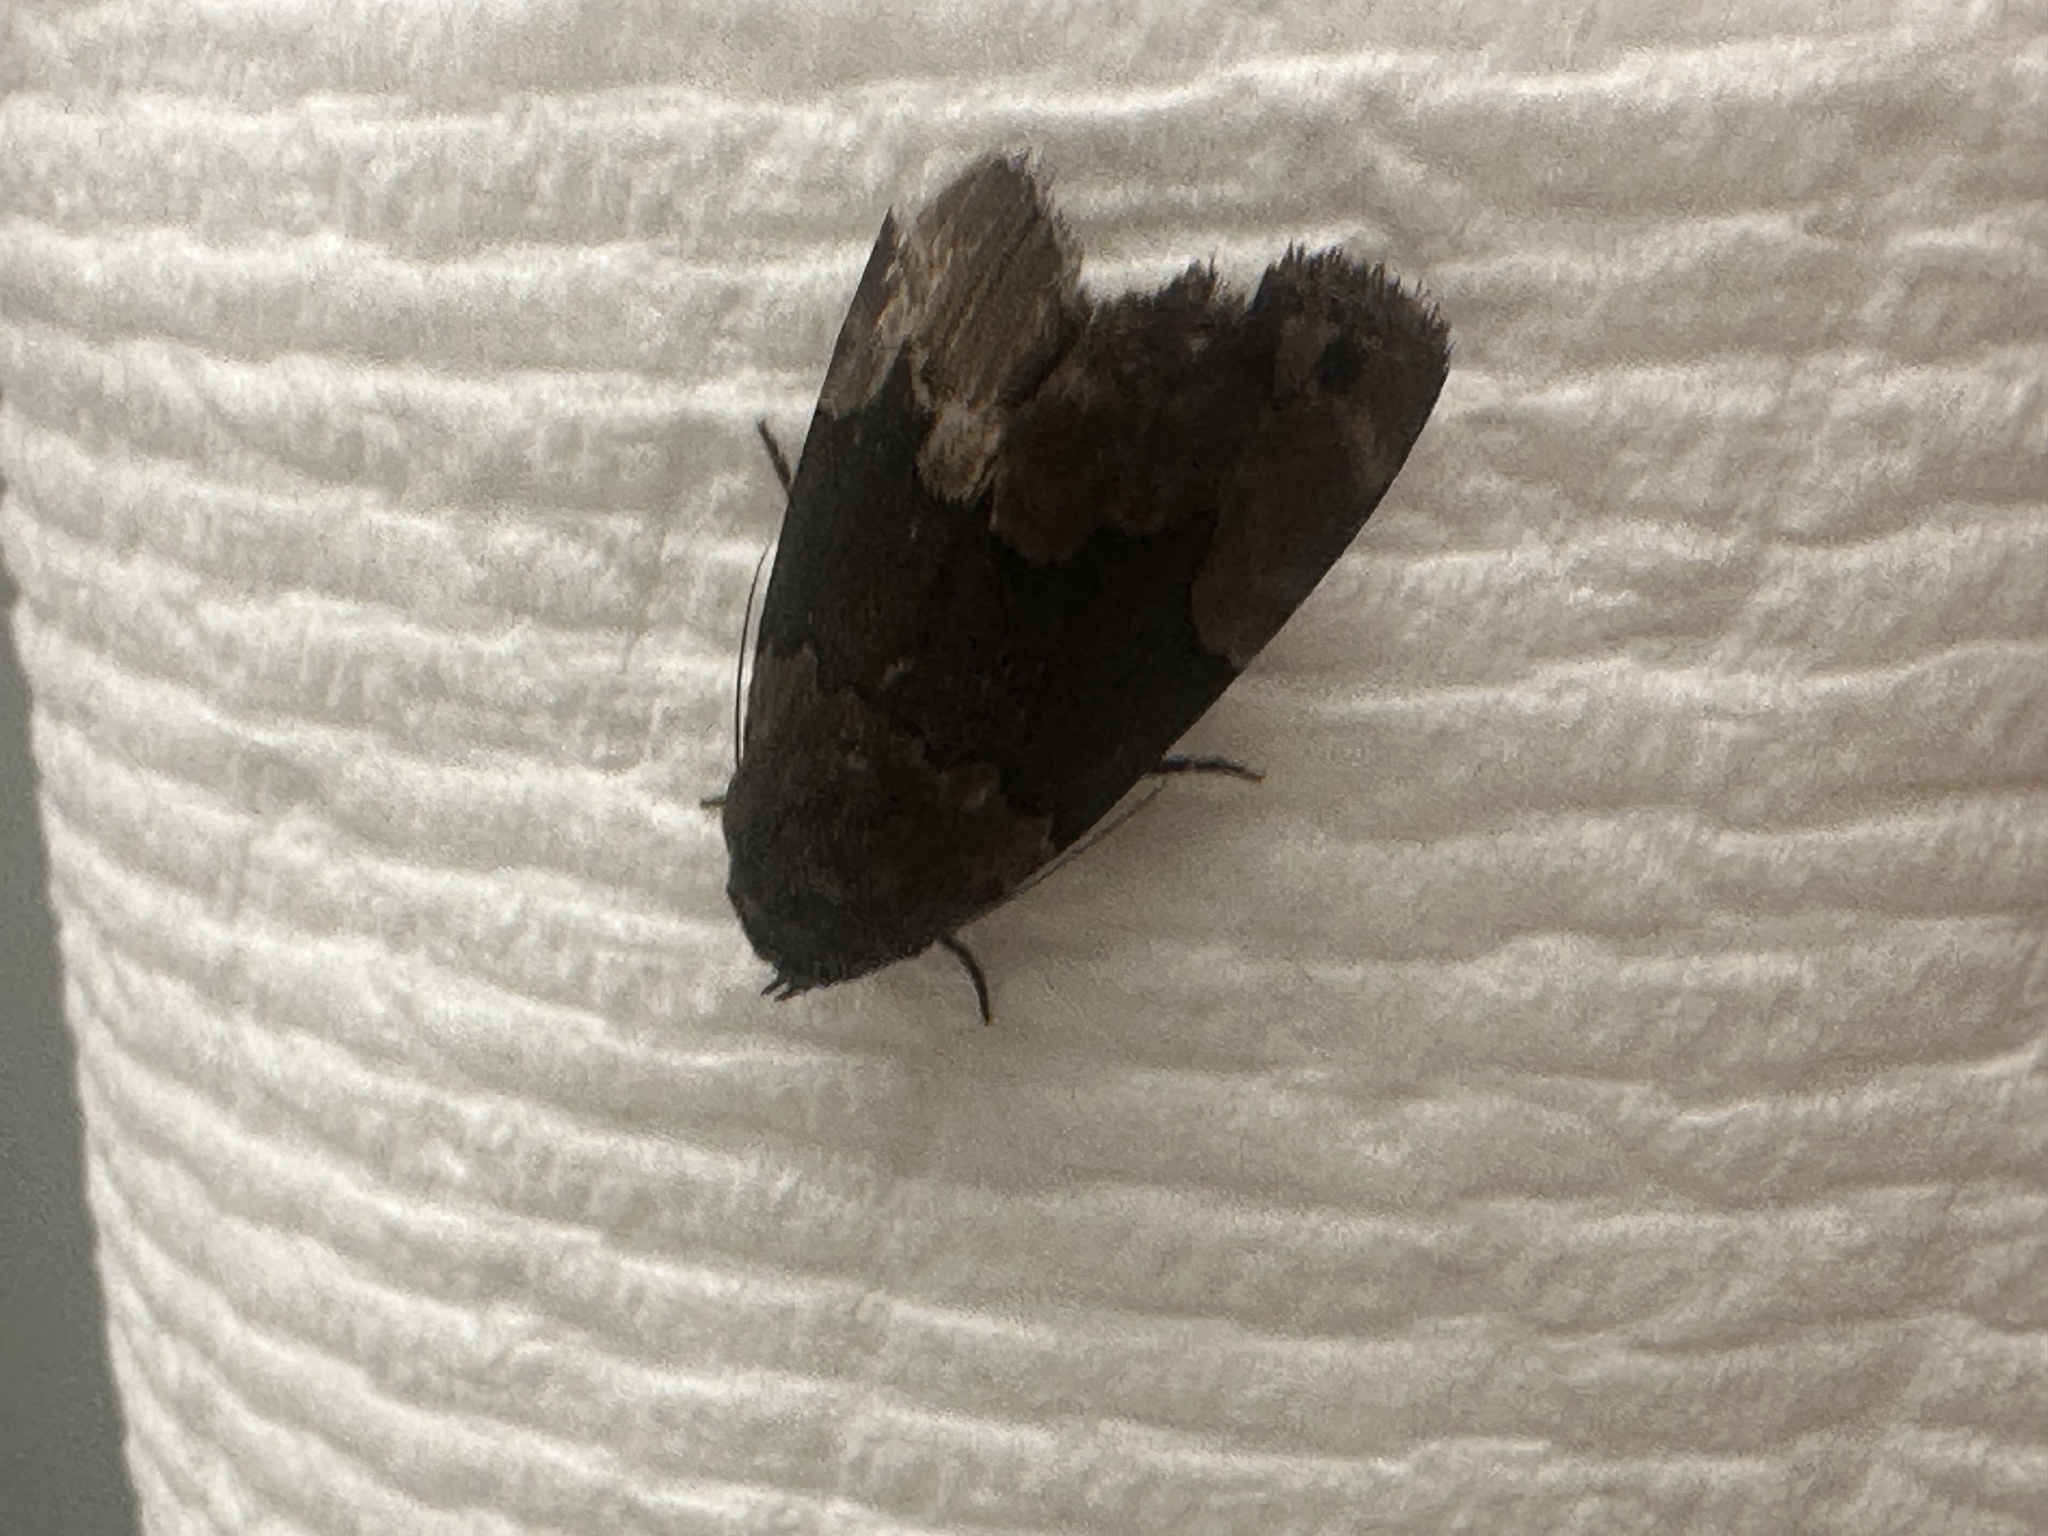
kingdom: Animalia
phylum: Arthropoda
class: Insecta
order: Lepidoptera
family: Erebidae
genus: Dinumma
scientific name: Dinumma deponens
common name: Purplish moth
